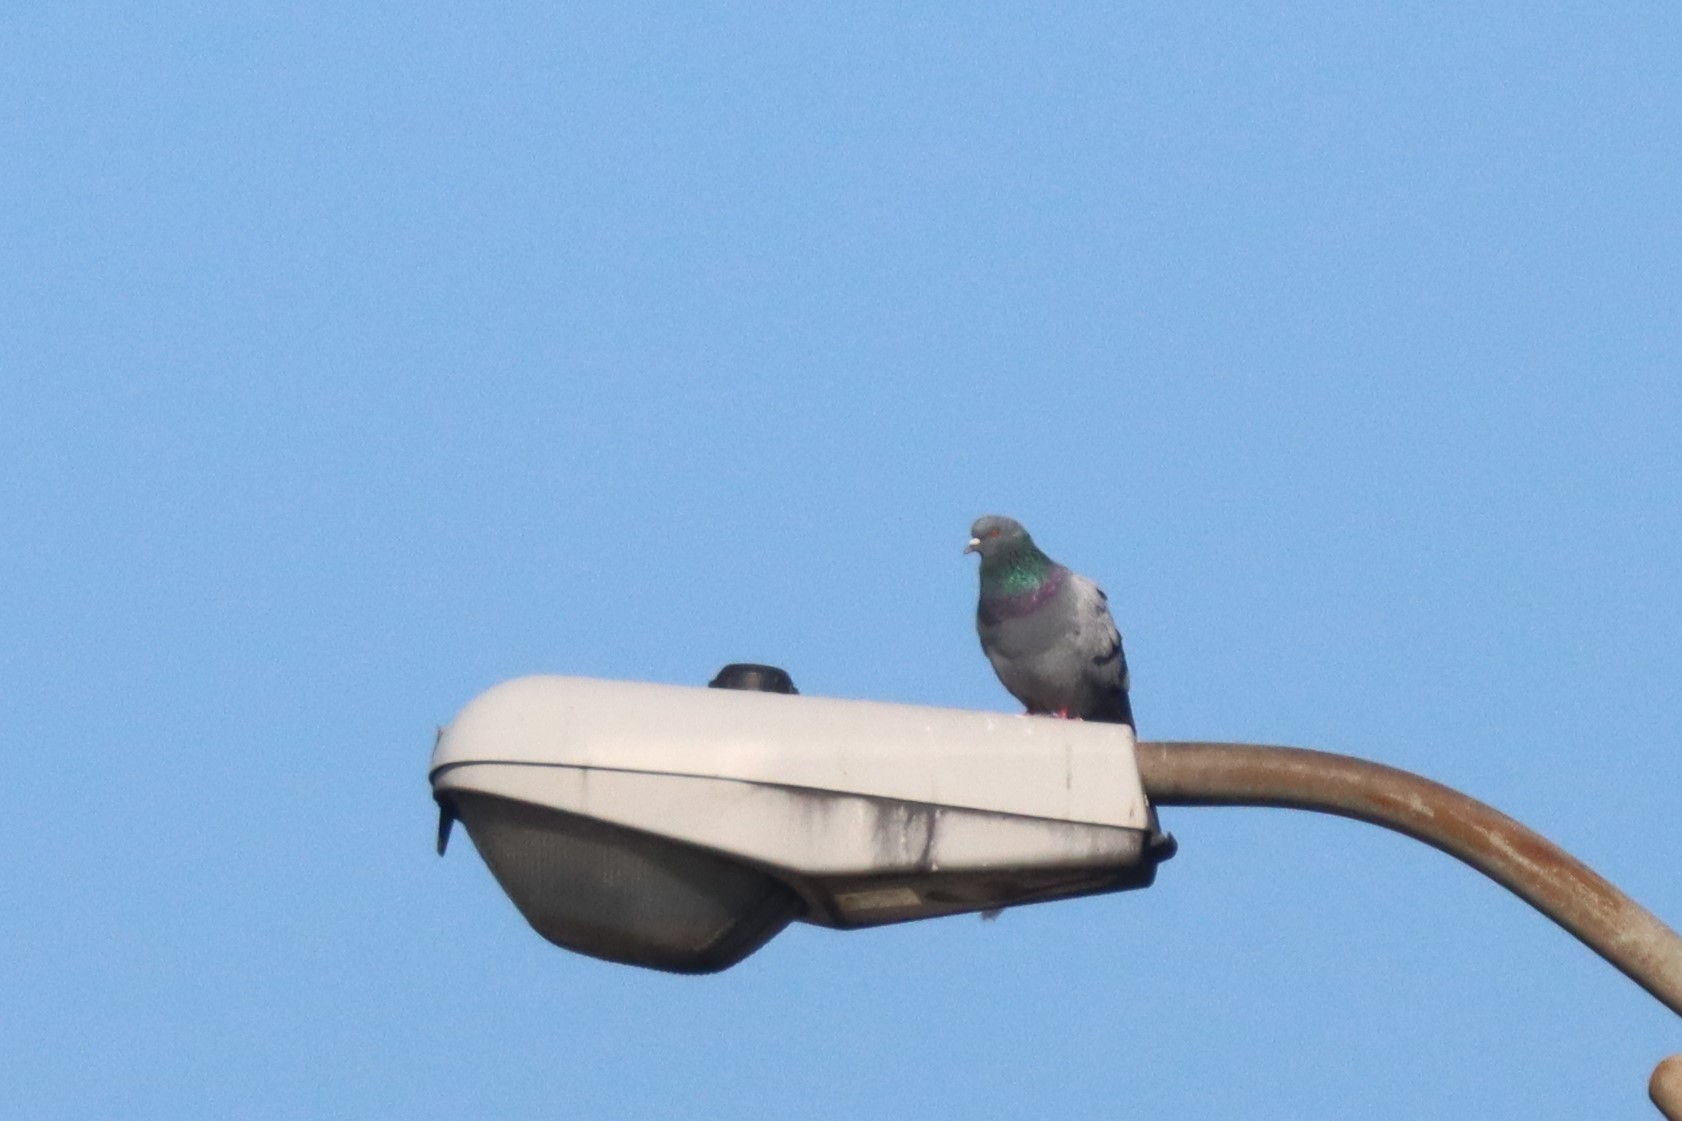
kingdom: Animalia
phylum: Chordata
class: Aves
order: Columbiformes
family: Columbidae
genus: Columba
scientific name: Columba livia
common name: Rock pigeon
